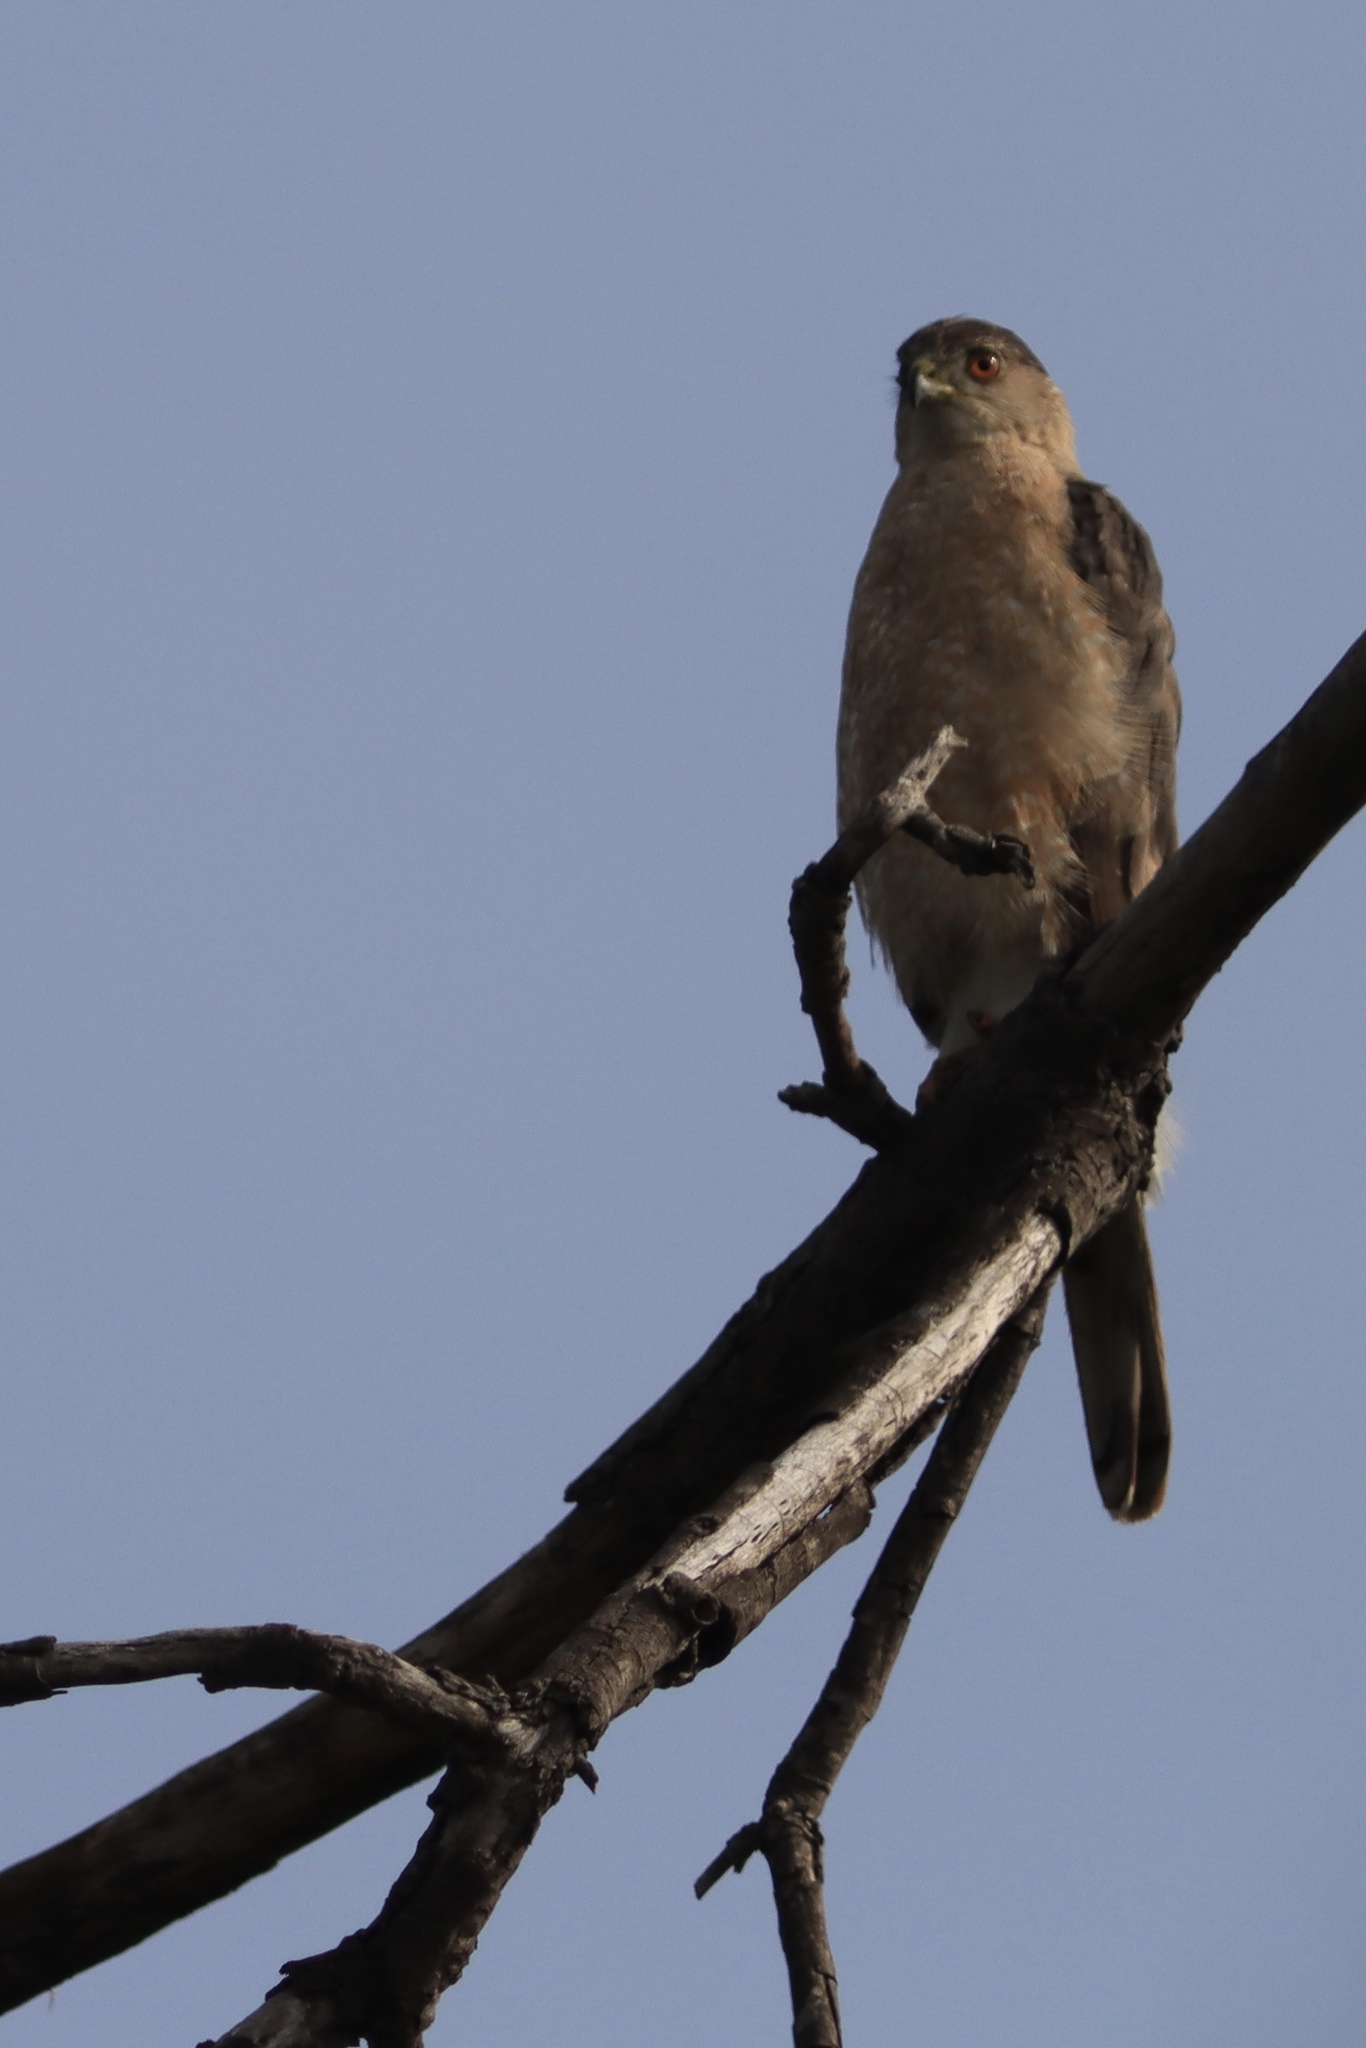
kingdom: Animalia
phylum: Chordata
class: Aves
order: Accipitriformes
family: Accipitridae
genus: Accipiter
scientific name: Accipiter cooperii
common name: Cooper's hawk
